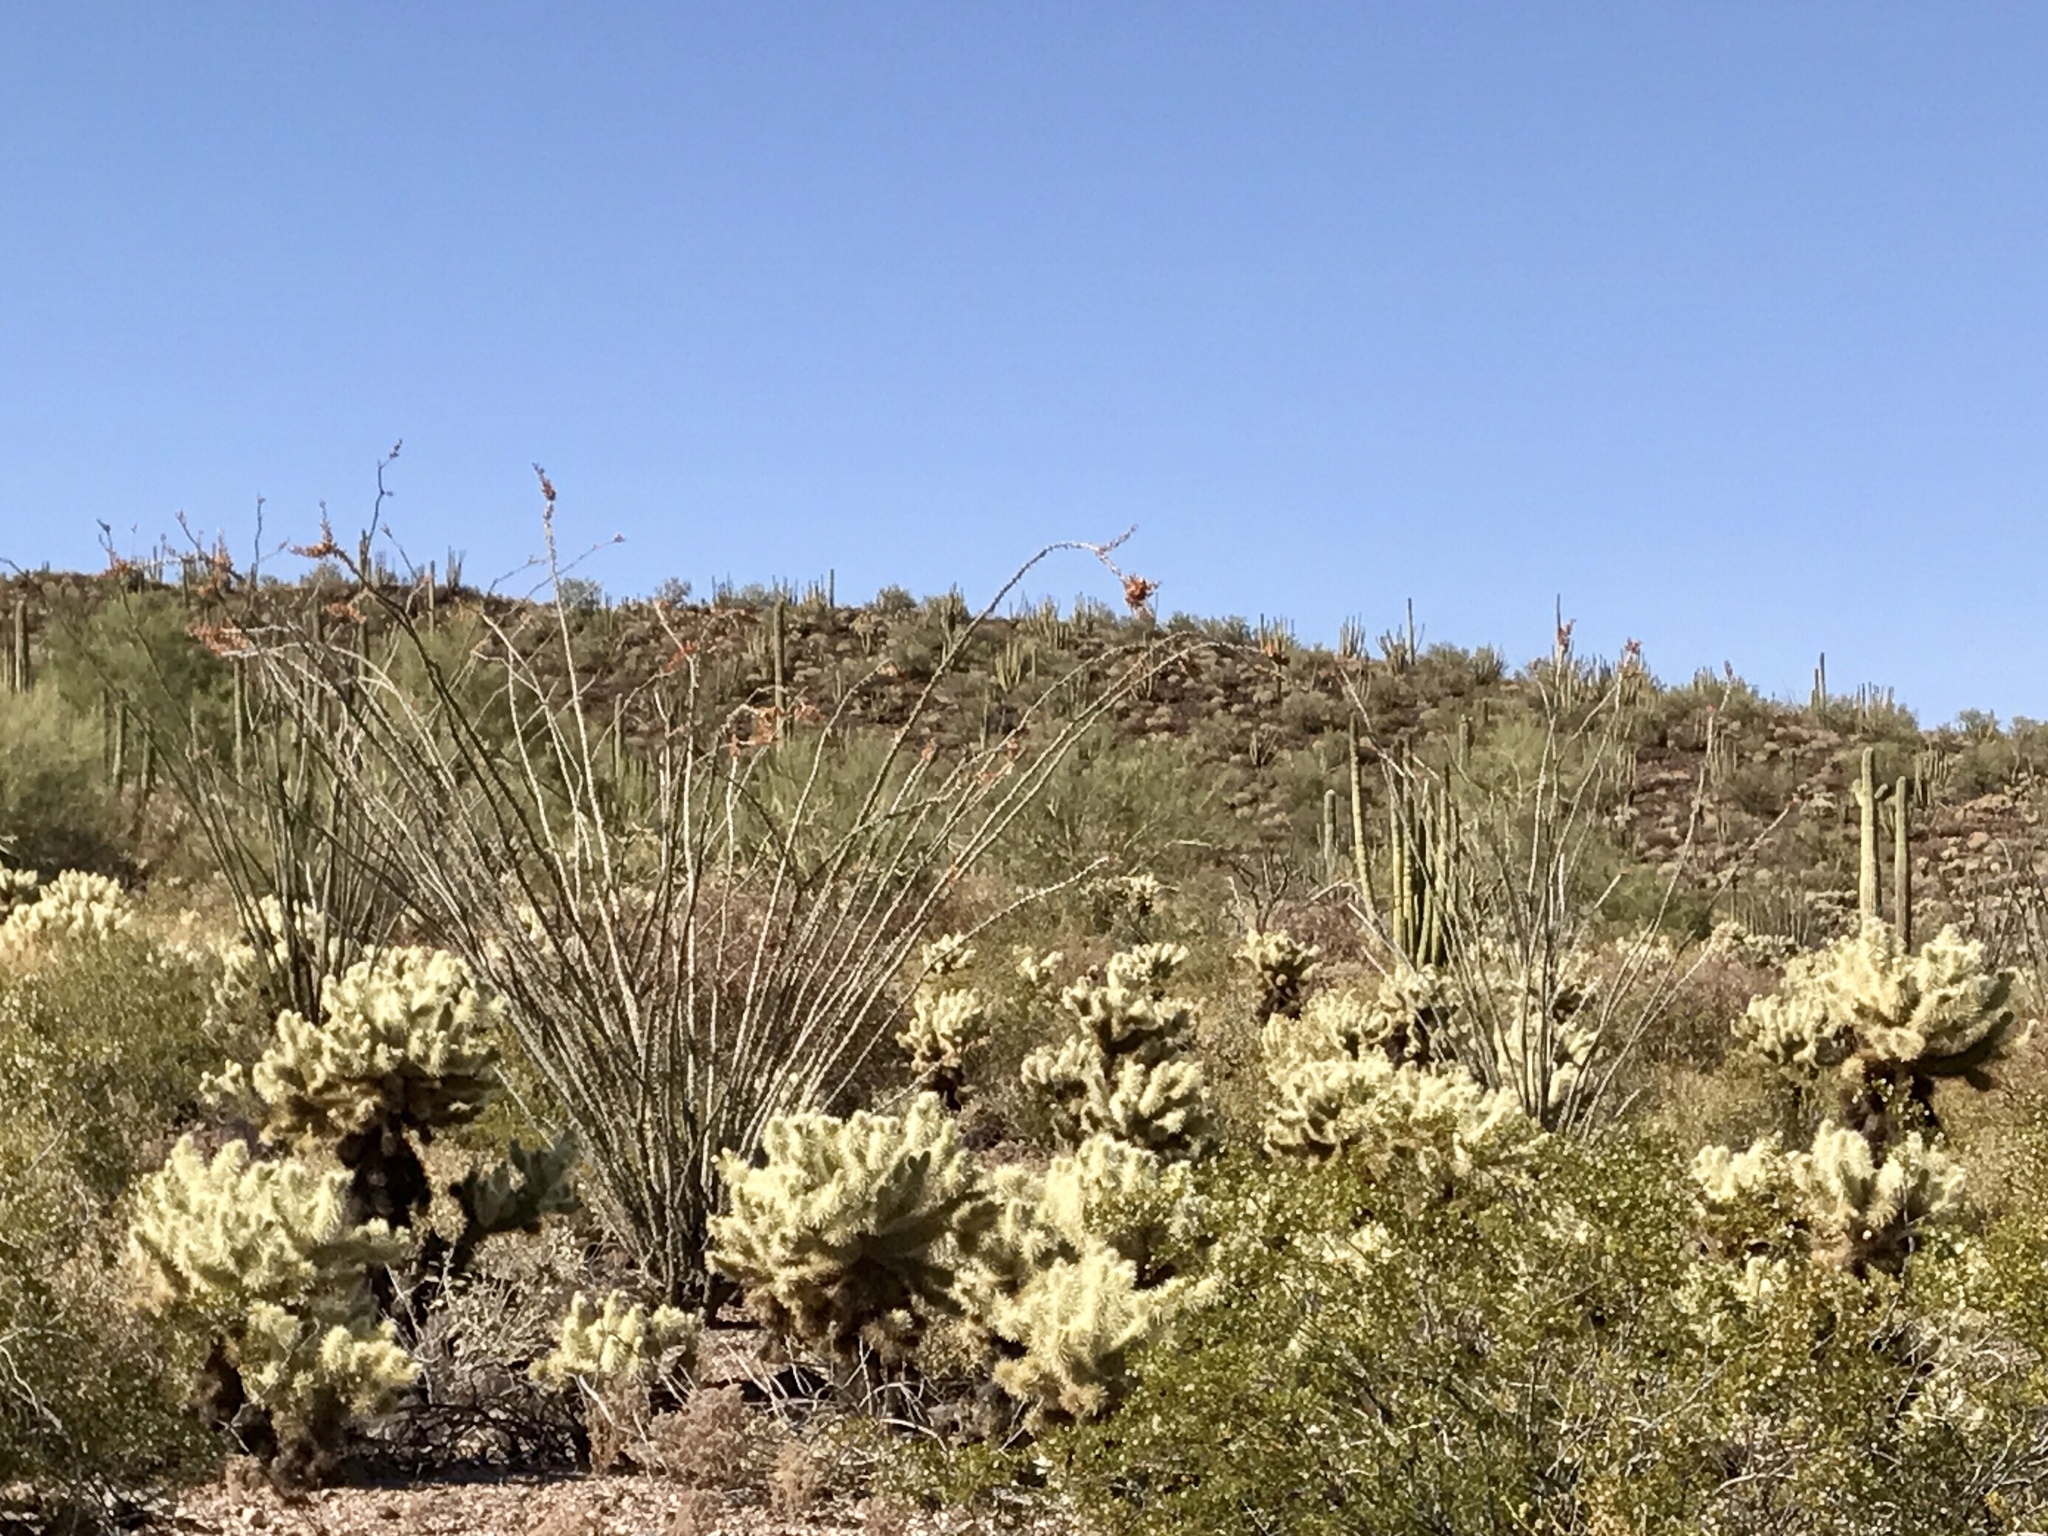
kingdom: Plantae
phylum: Tracheophyta
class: Magnoliopsida
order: Caryophyllales
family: Cactaceae
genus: Cylindropuntia
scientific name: Cylindropuntia fosbergii
